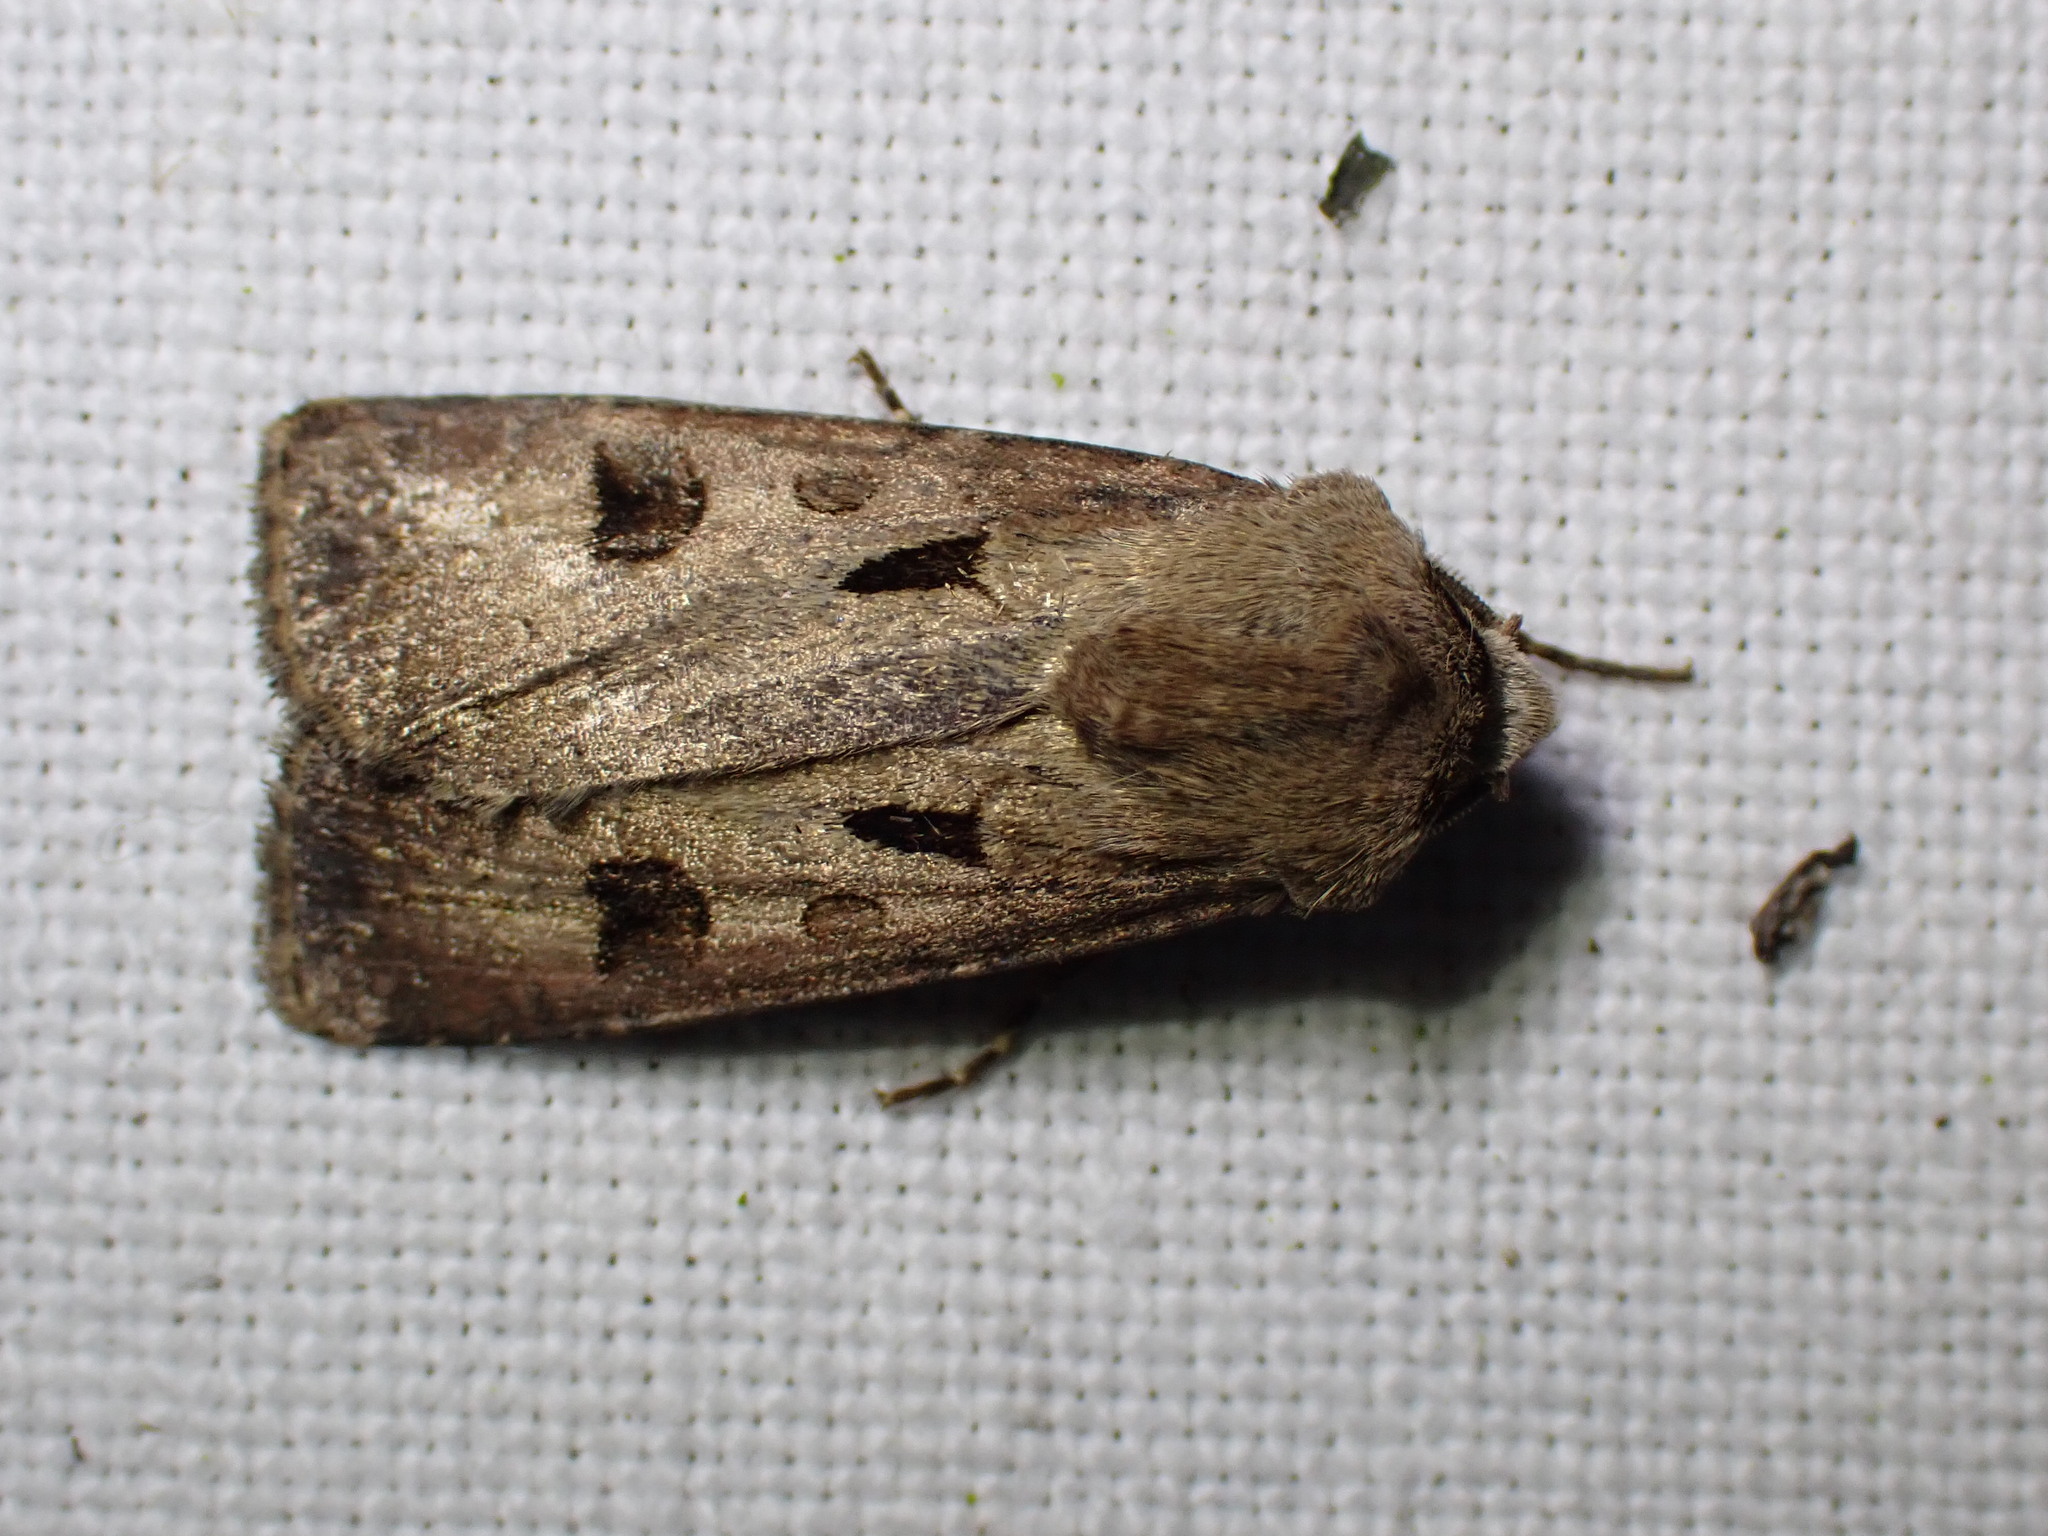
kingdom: Animalia
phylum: Arthropoda
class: Insecta
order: Lepidoptera
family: Noctuidae
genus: Agrotis
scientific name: Agrotis exclamationis
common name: Heart and dart
